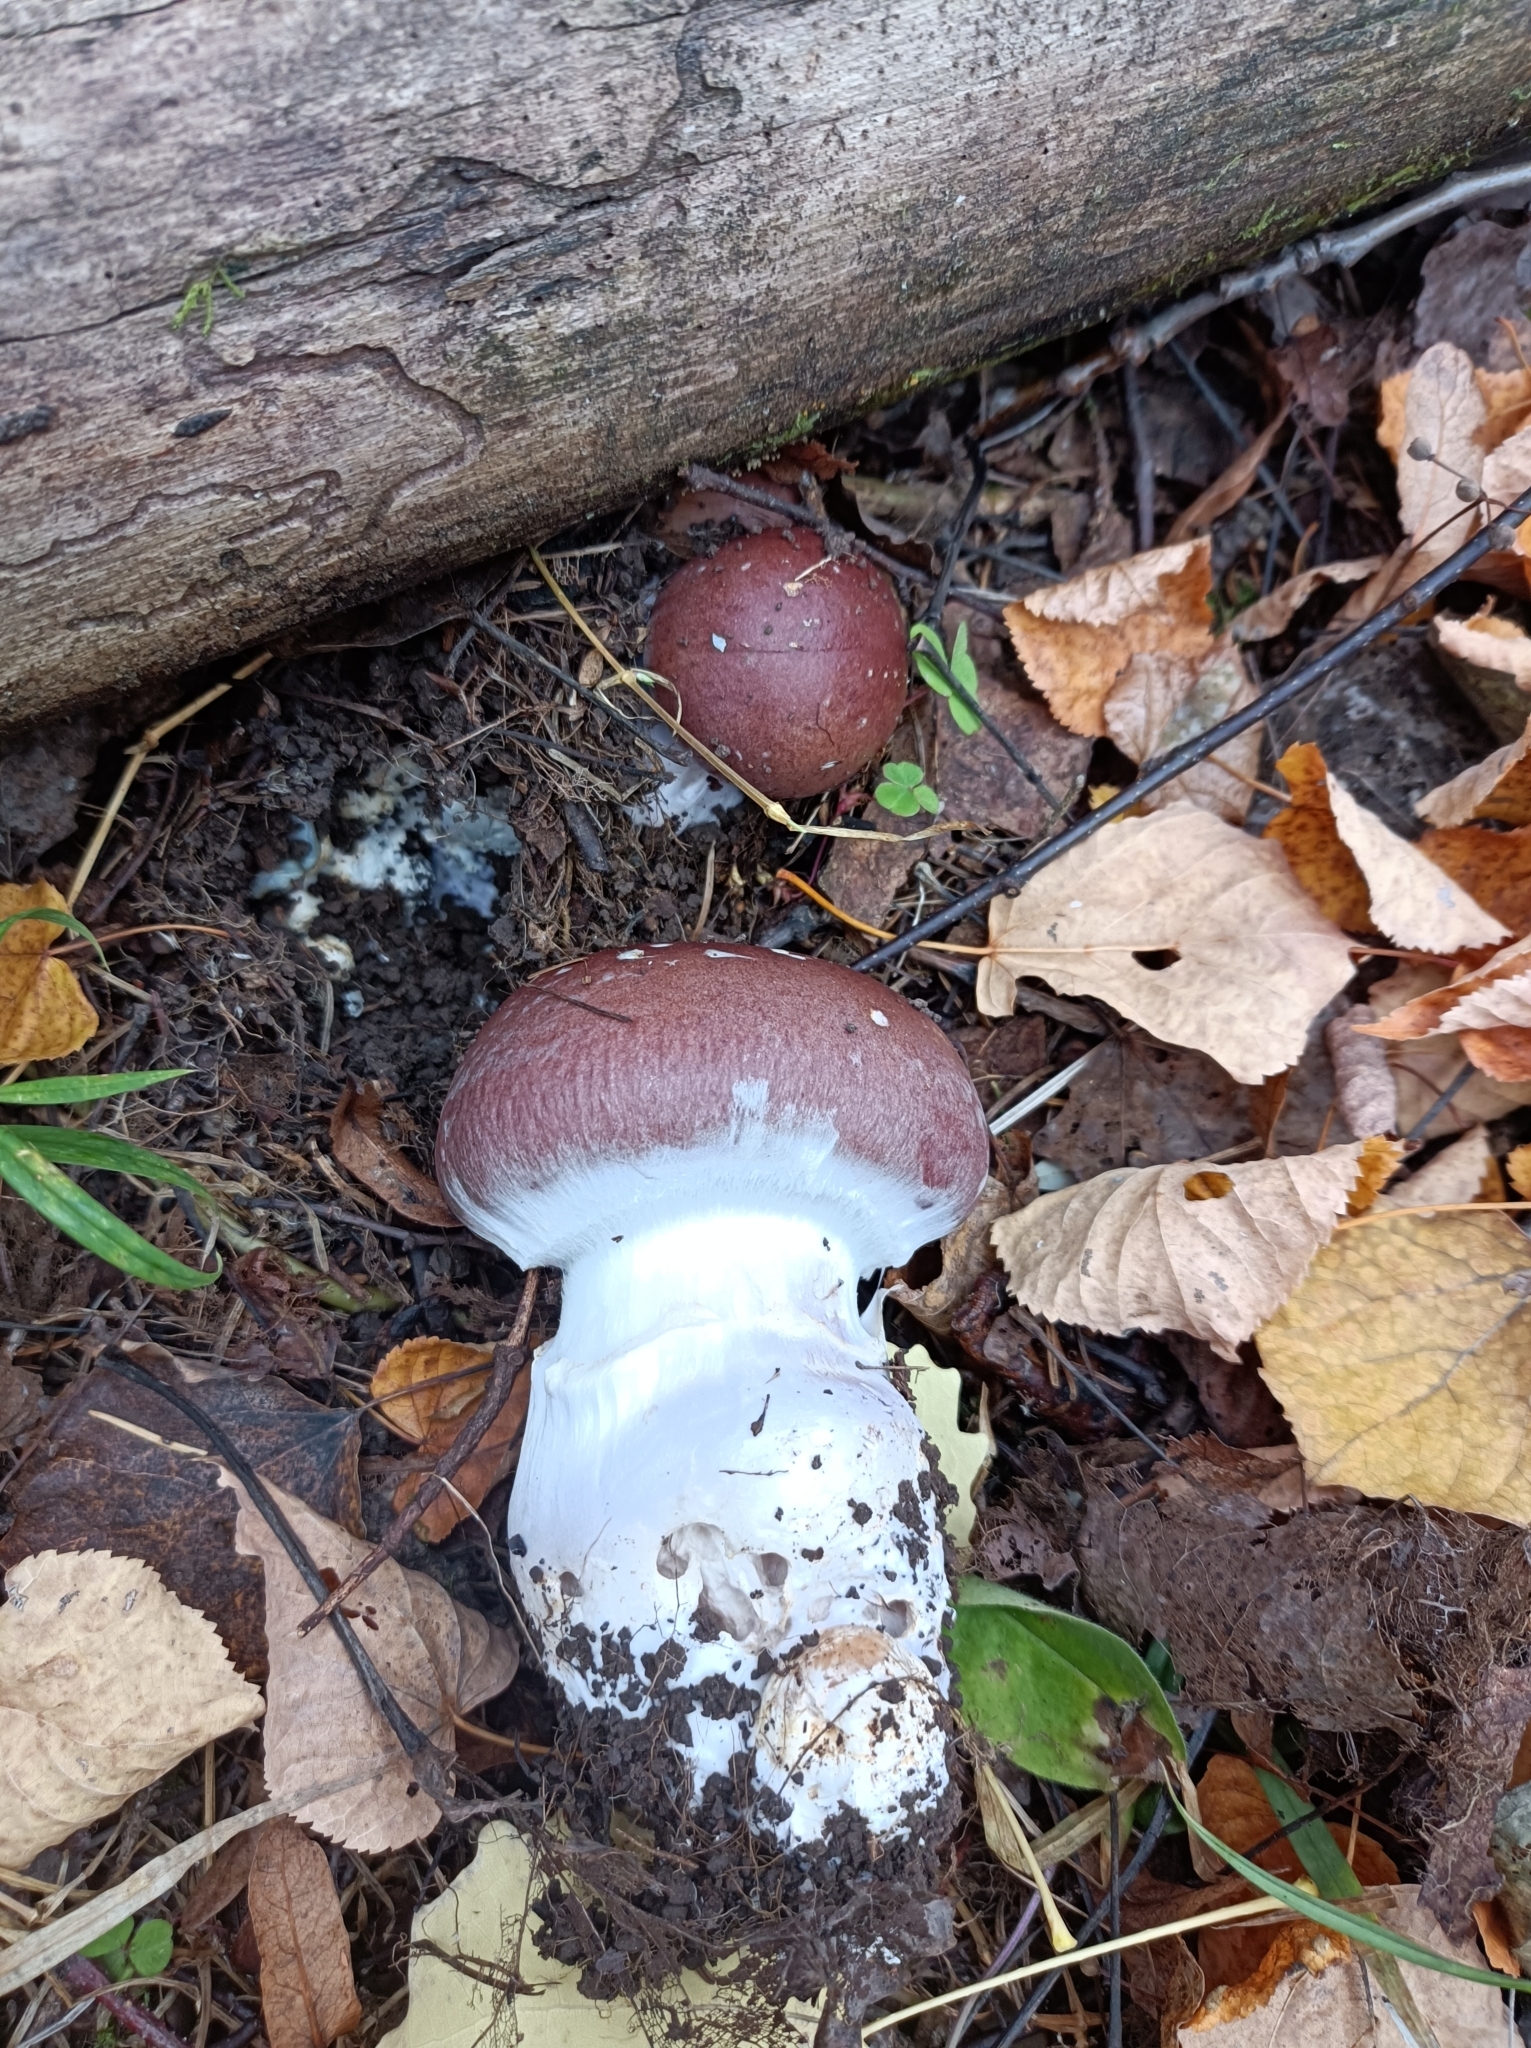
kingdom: Fungi
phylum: Basidiomycota
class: Agaricomycetes
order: Agaricales
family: Cortinariaceae
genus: Cortinarius
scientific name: Cortinarius praestans
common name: Goliath webcap
